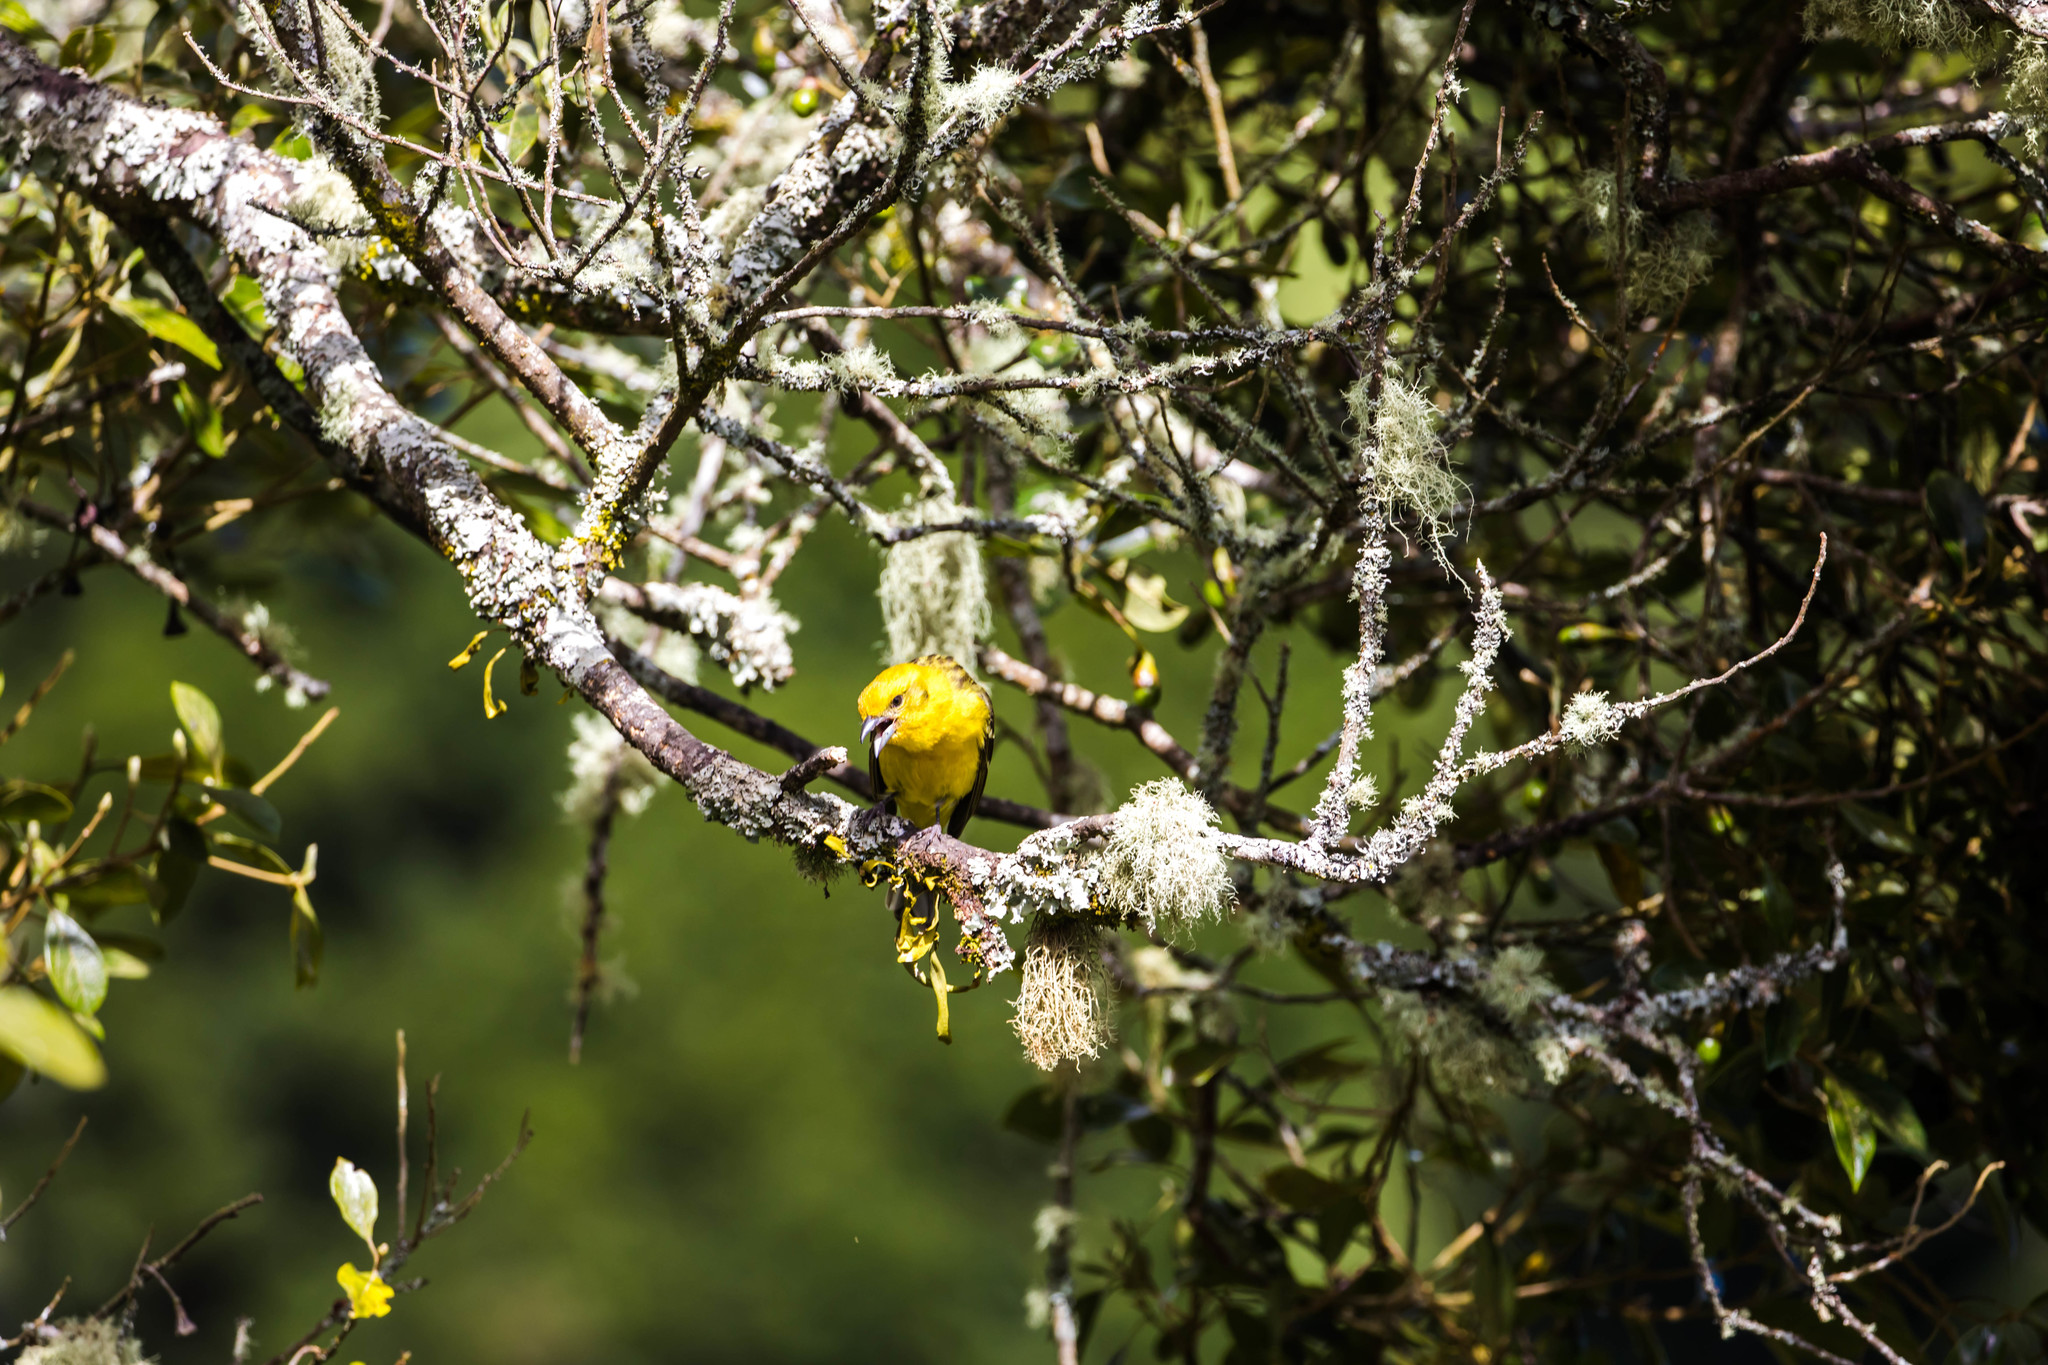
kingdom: Animalia
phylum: Chordata
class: Aves
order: Passeriformes
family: Cardinalidae
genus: Piranga
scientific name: Piranga bidentata
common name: Flame-colored tanager
